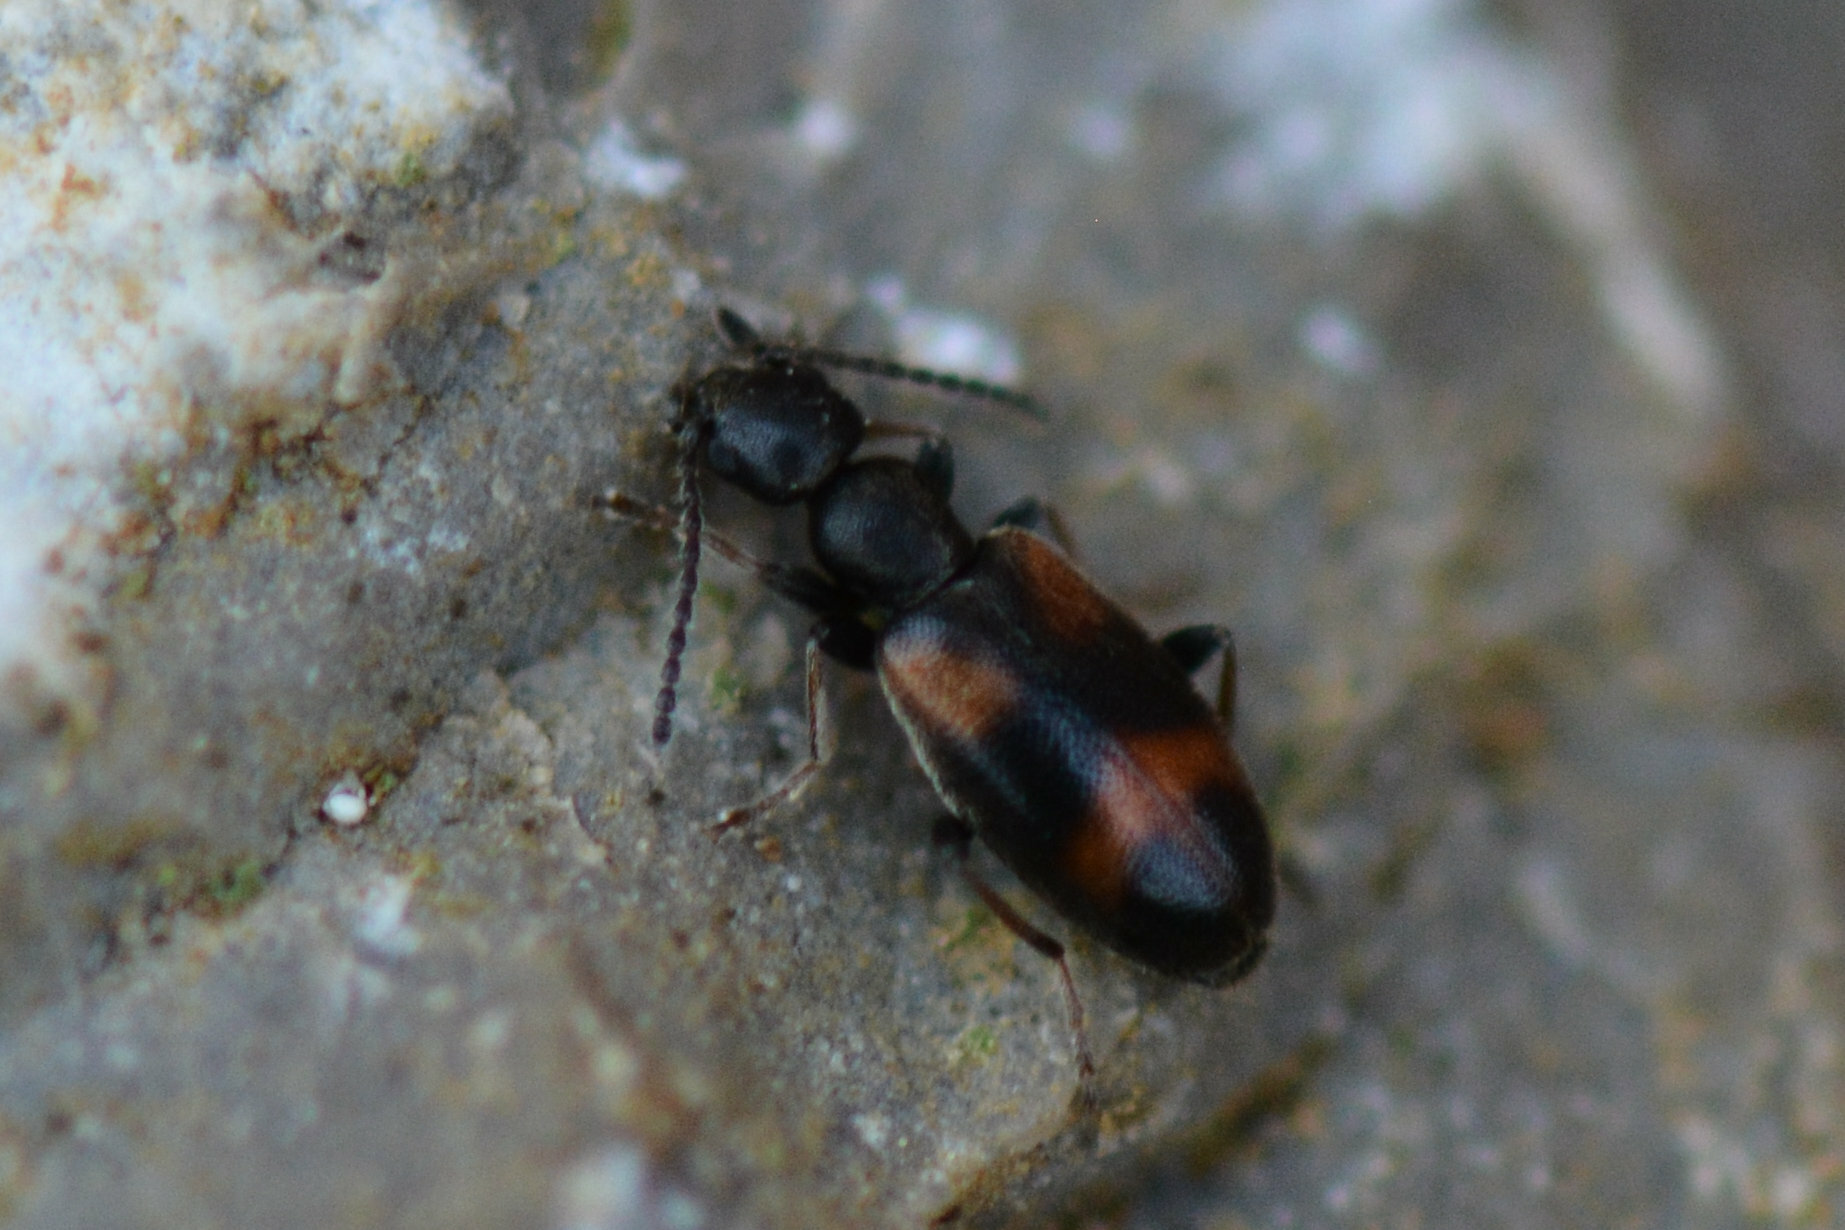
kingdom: Animalia
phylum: Arthropoda
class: Insecta
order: Coleoptera
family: Anthicidae
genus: Anthicus
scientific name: Anthicus antherinus
